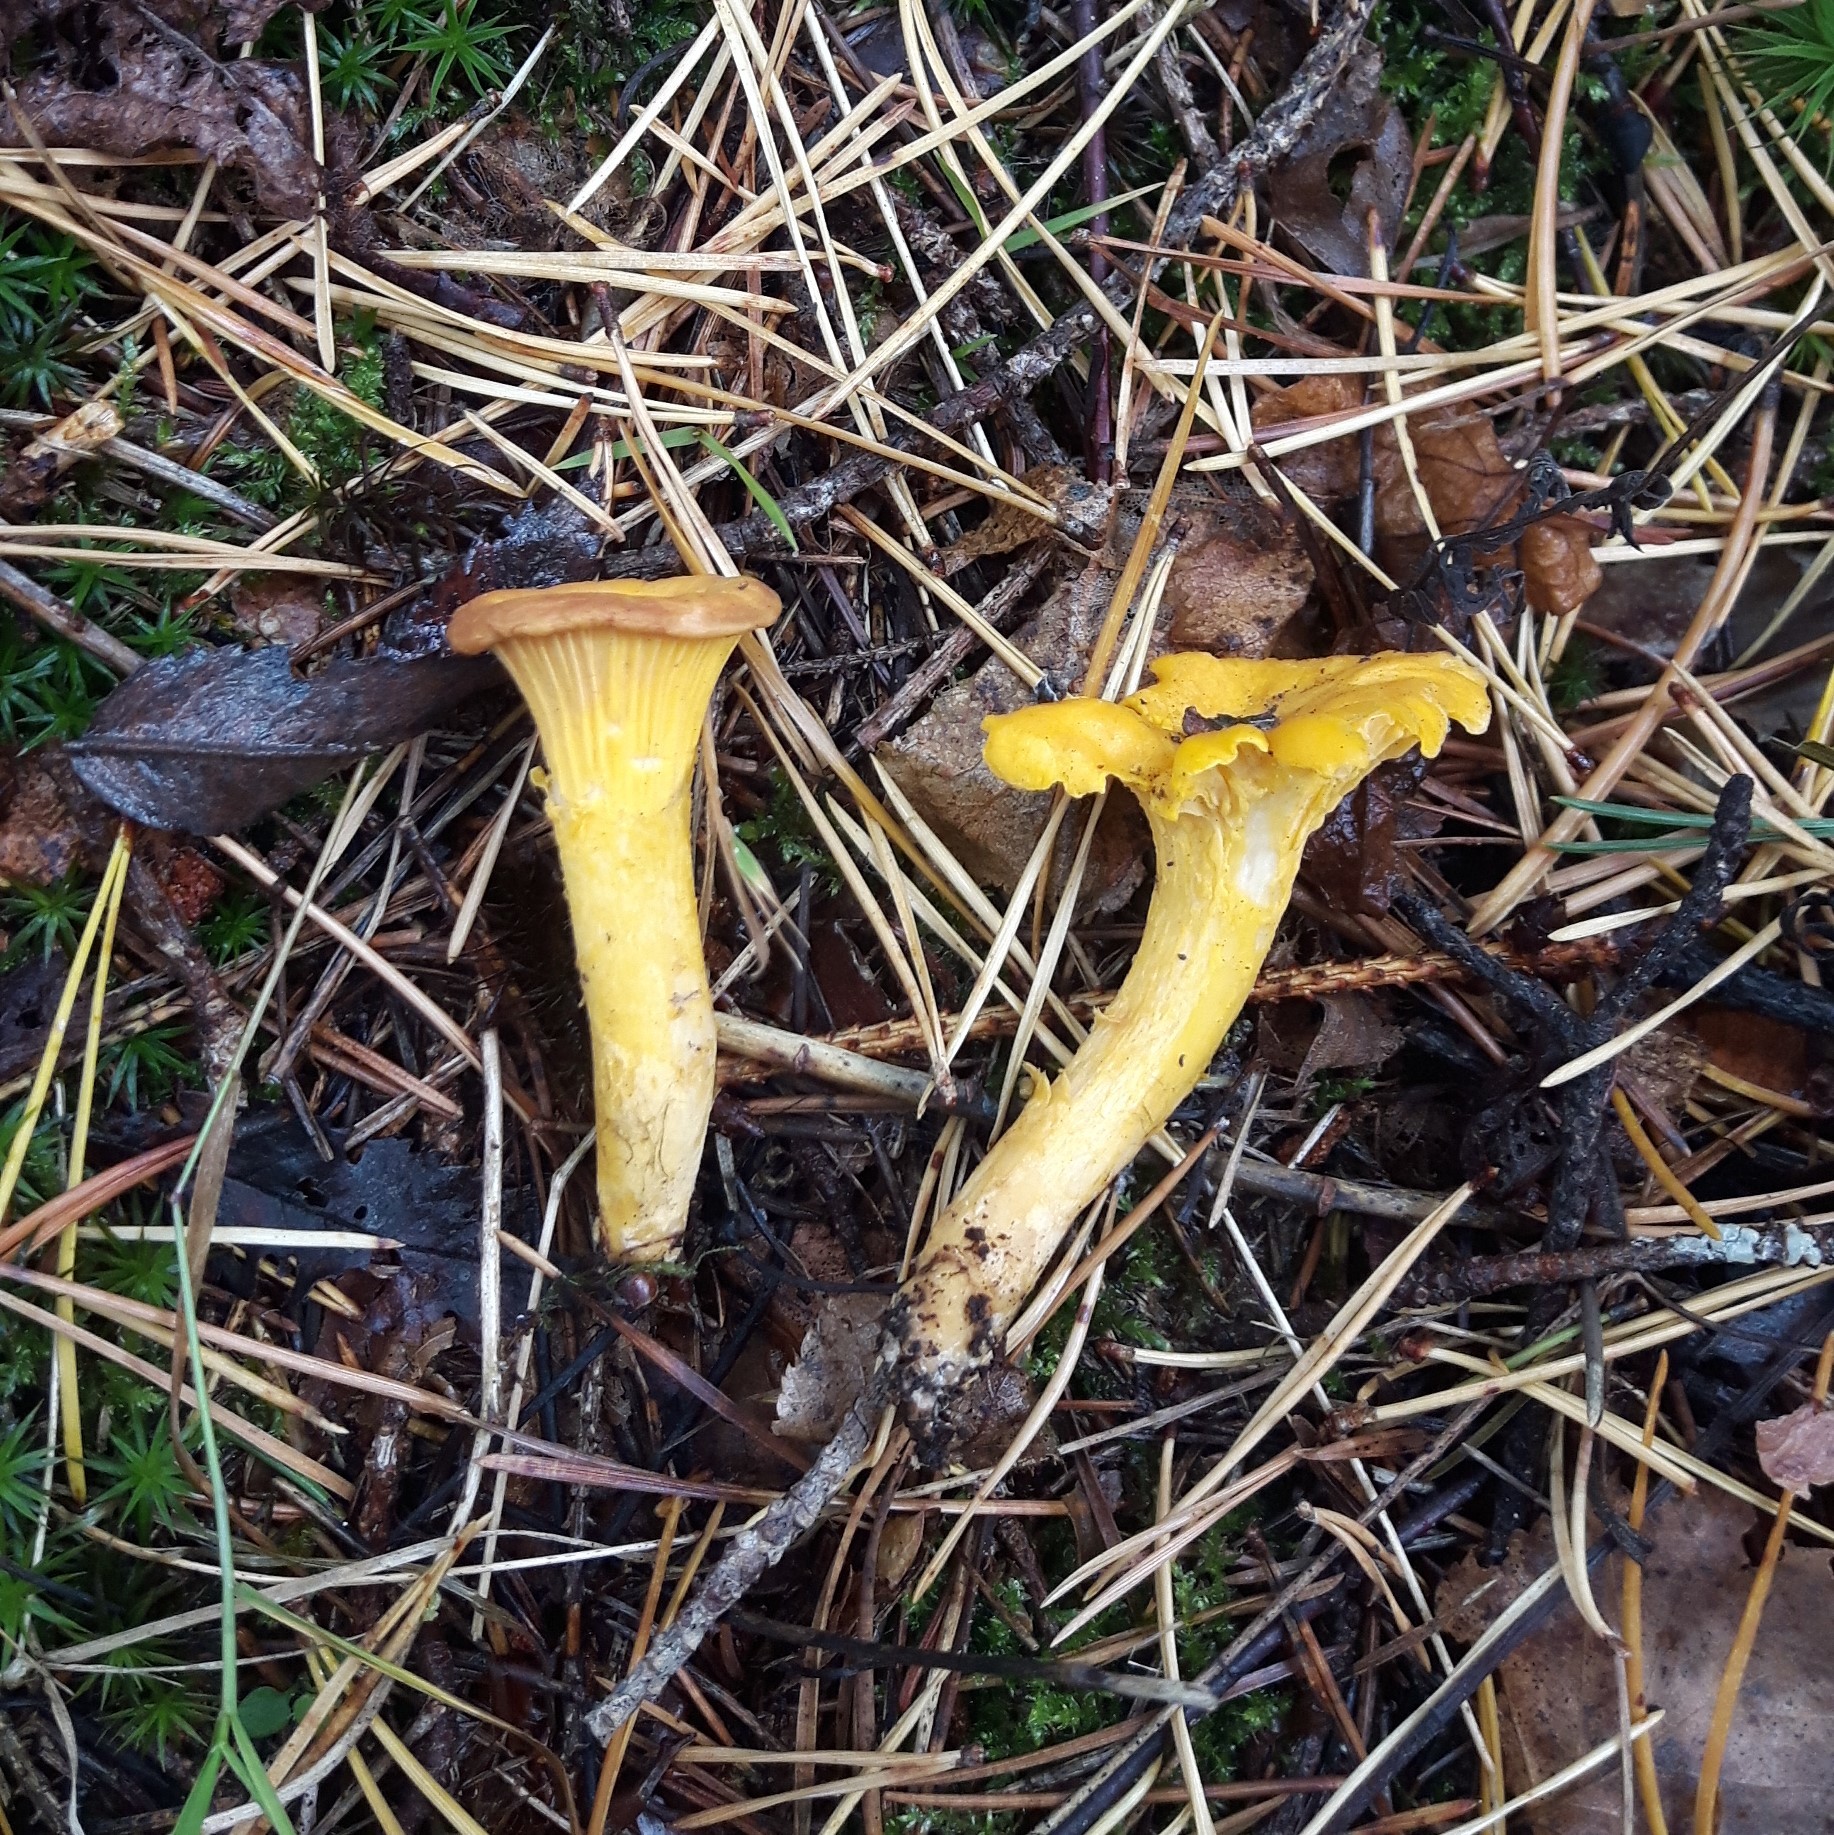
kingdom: Fungi
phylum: Basidiomycota
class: Agaricomycetes
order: Cantharellales
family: Hydnaceae
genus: Cantharellus
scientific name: Cantharellus cibarius
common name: Chanterelle
